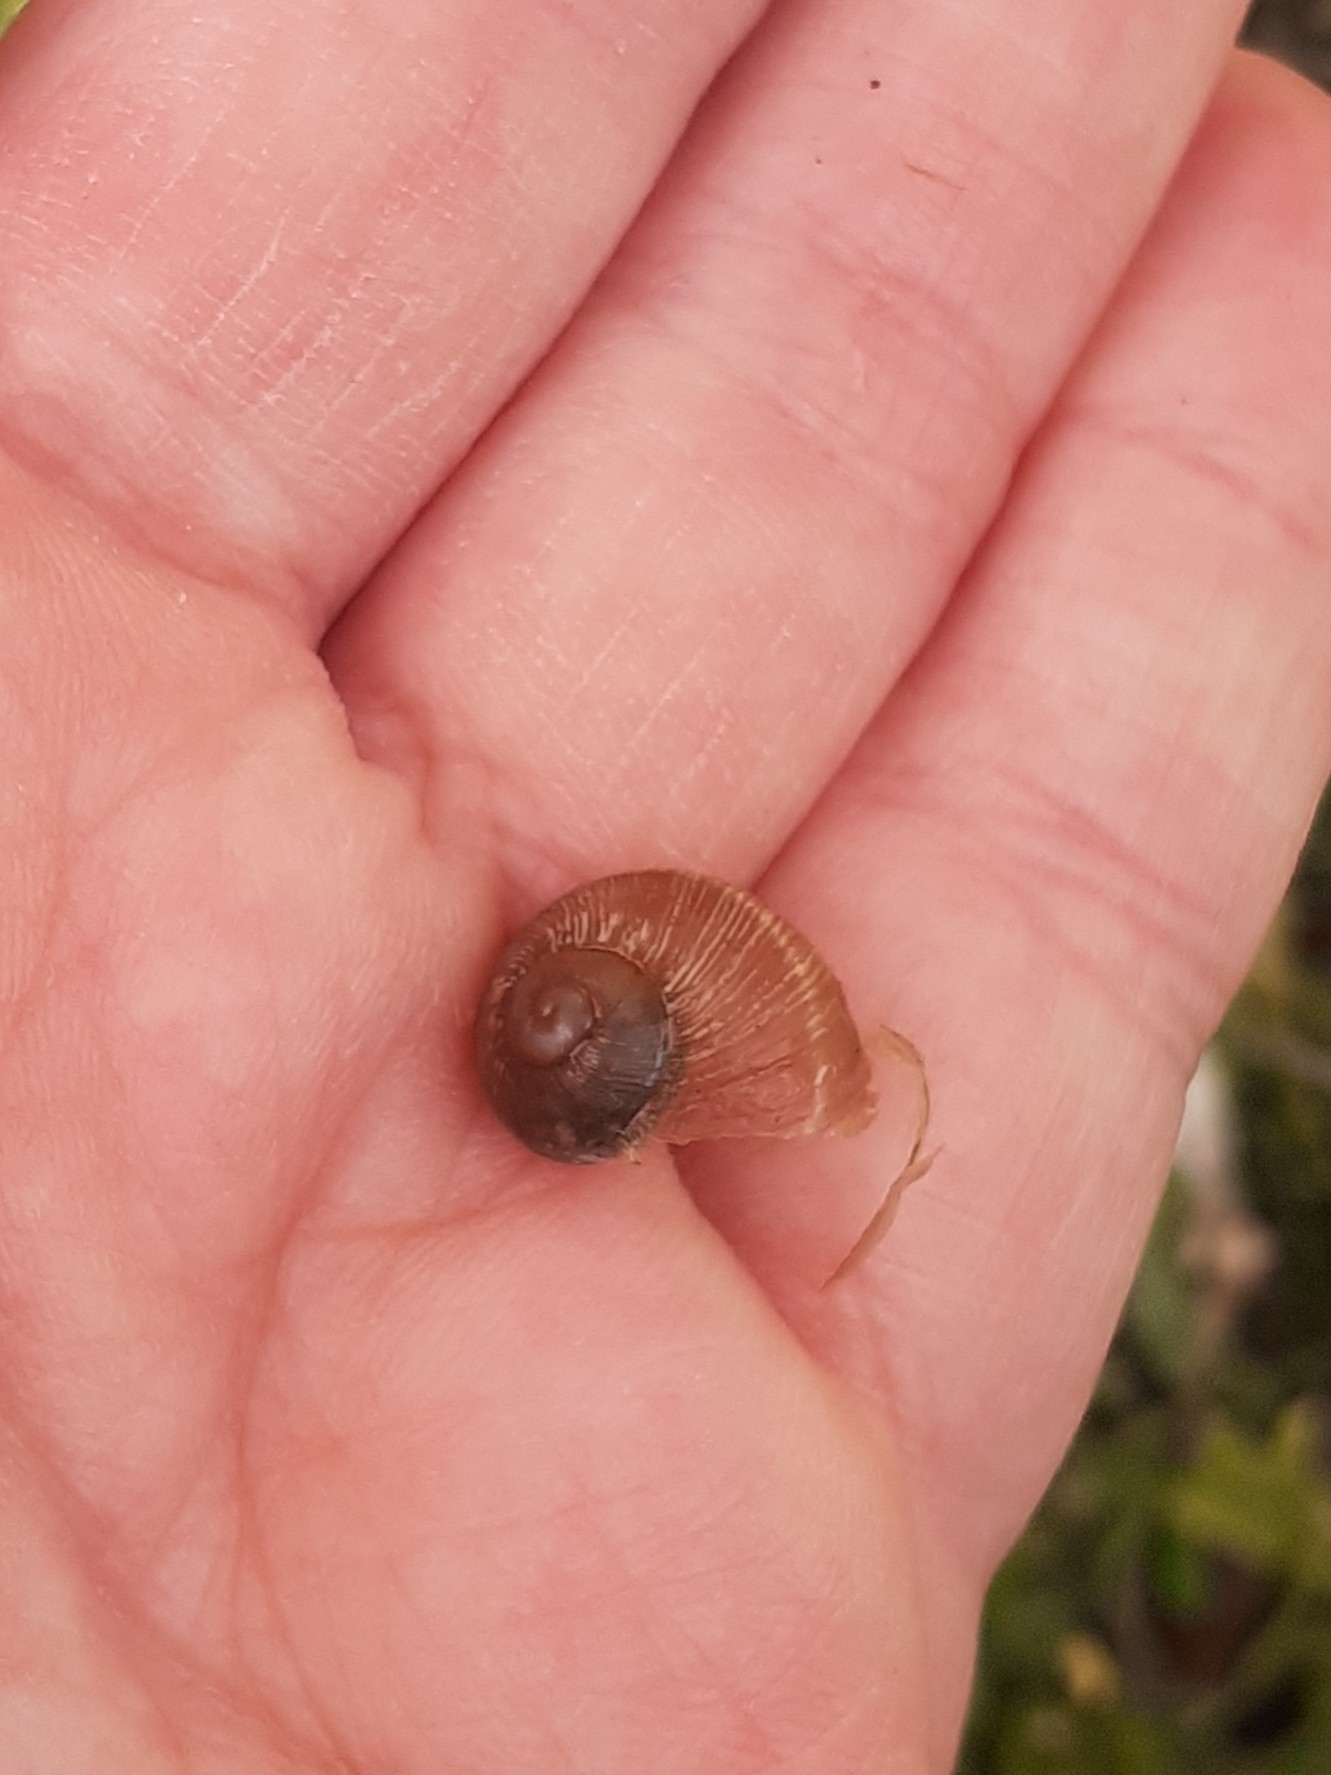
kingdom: Animalia
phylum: Mollusca
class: Gastropoda
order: Stylommatophora
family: Helicidae
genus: Cornu
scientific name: Cornu aspersum
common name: Brown garden snail
